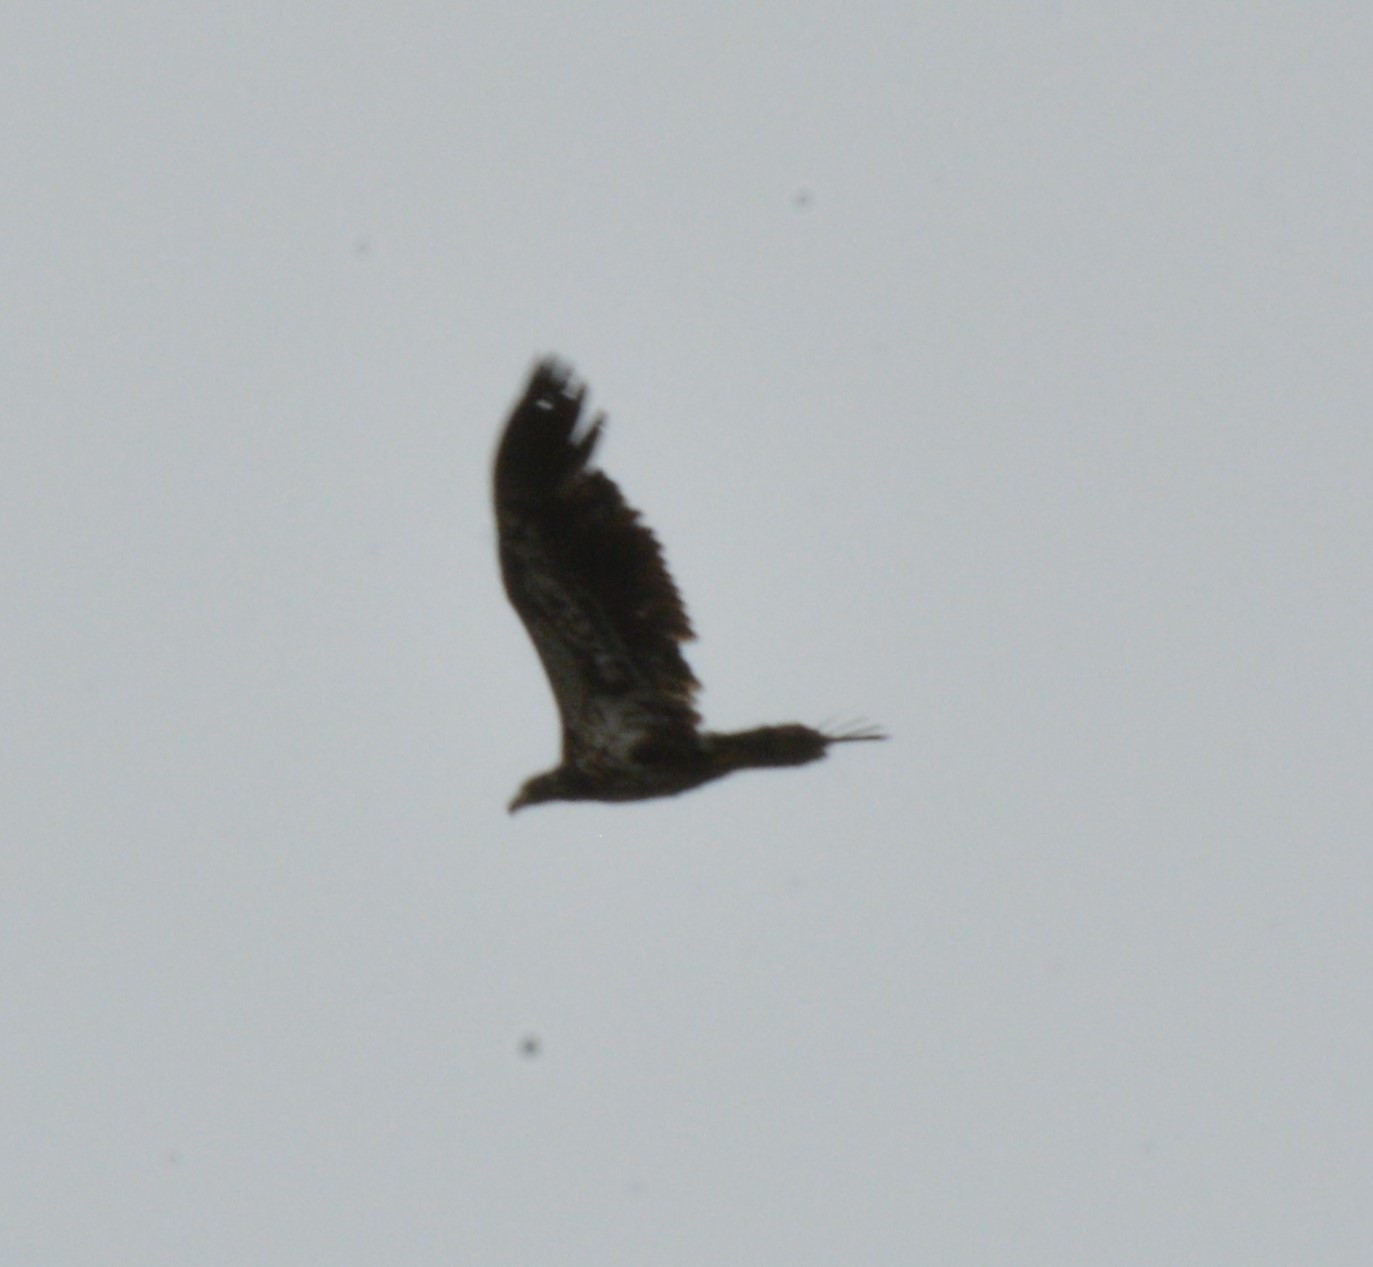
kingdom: Animalia
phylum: Chordata
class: Aves
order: Accipitriformes
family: Accipitridae
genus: Haliaeetus
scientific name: Haliaeetus leucocephalus
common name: Bald eagle
